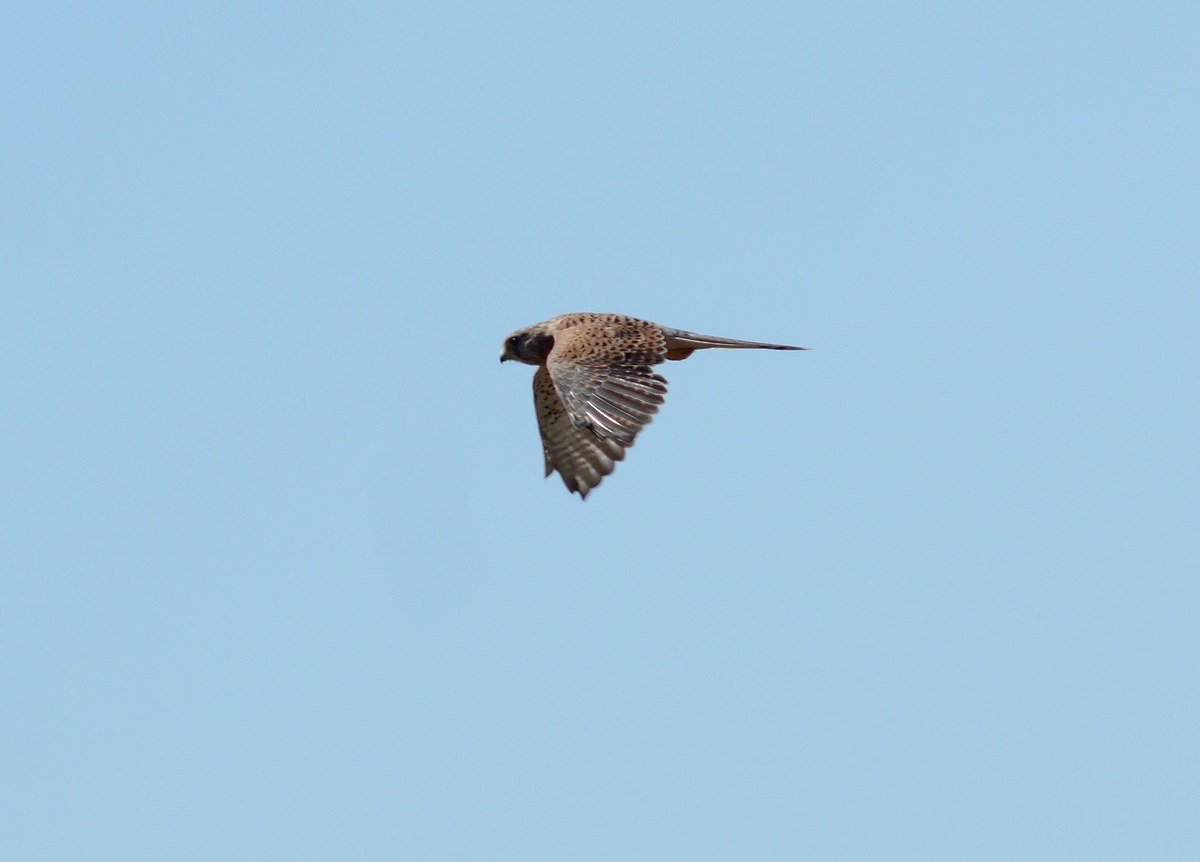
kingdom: Animalia
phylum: Chordata
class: Aves
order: Falconiformes
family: Falconidae
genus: Falco
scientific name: Falco tinnunculus
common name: Common kestrel
